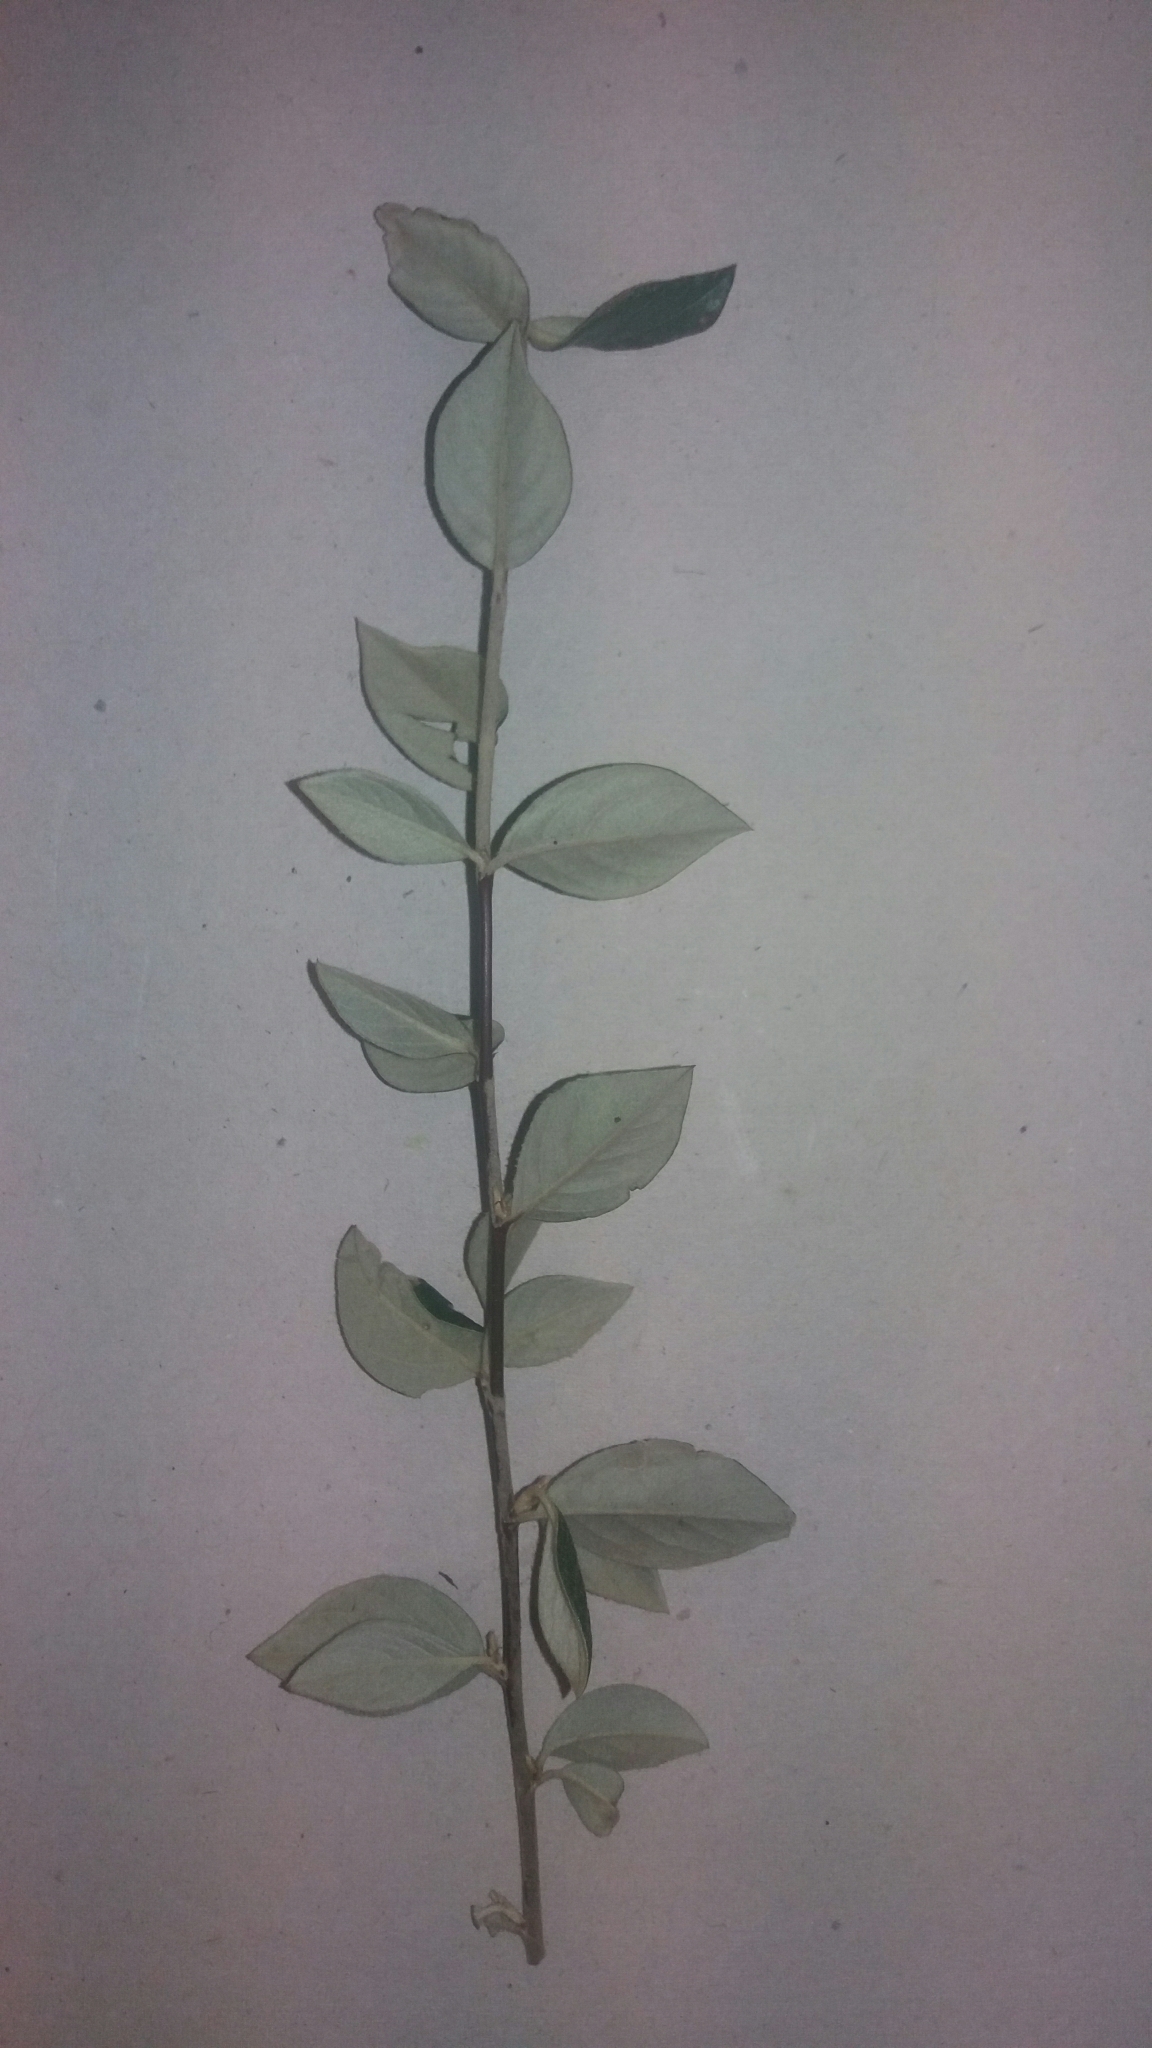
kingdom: Plantae
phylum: Tracheophyta
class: Magnoliopsida
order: Rosales
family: Rosaceae
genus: Cotoneaster
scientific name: Cotoneaster franchetii
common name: Franchet's cotoneaster
